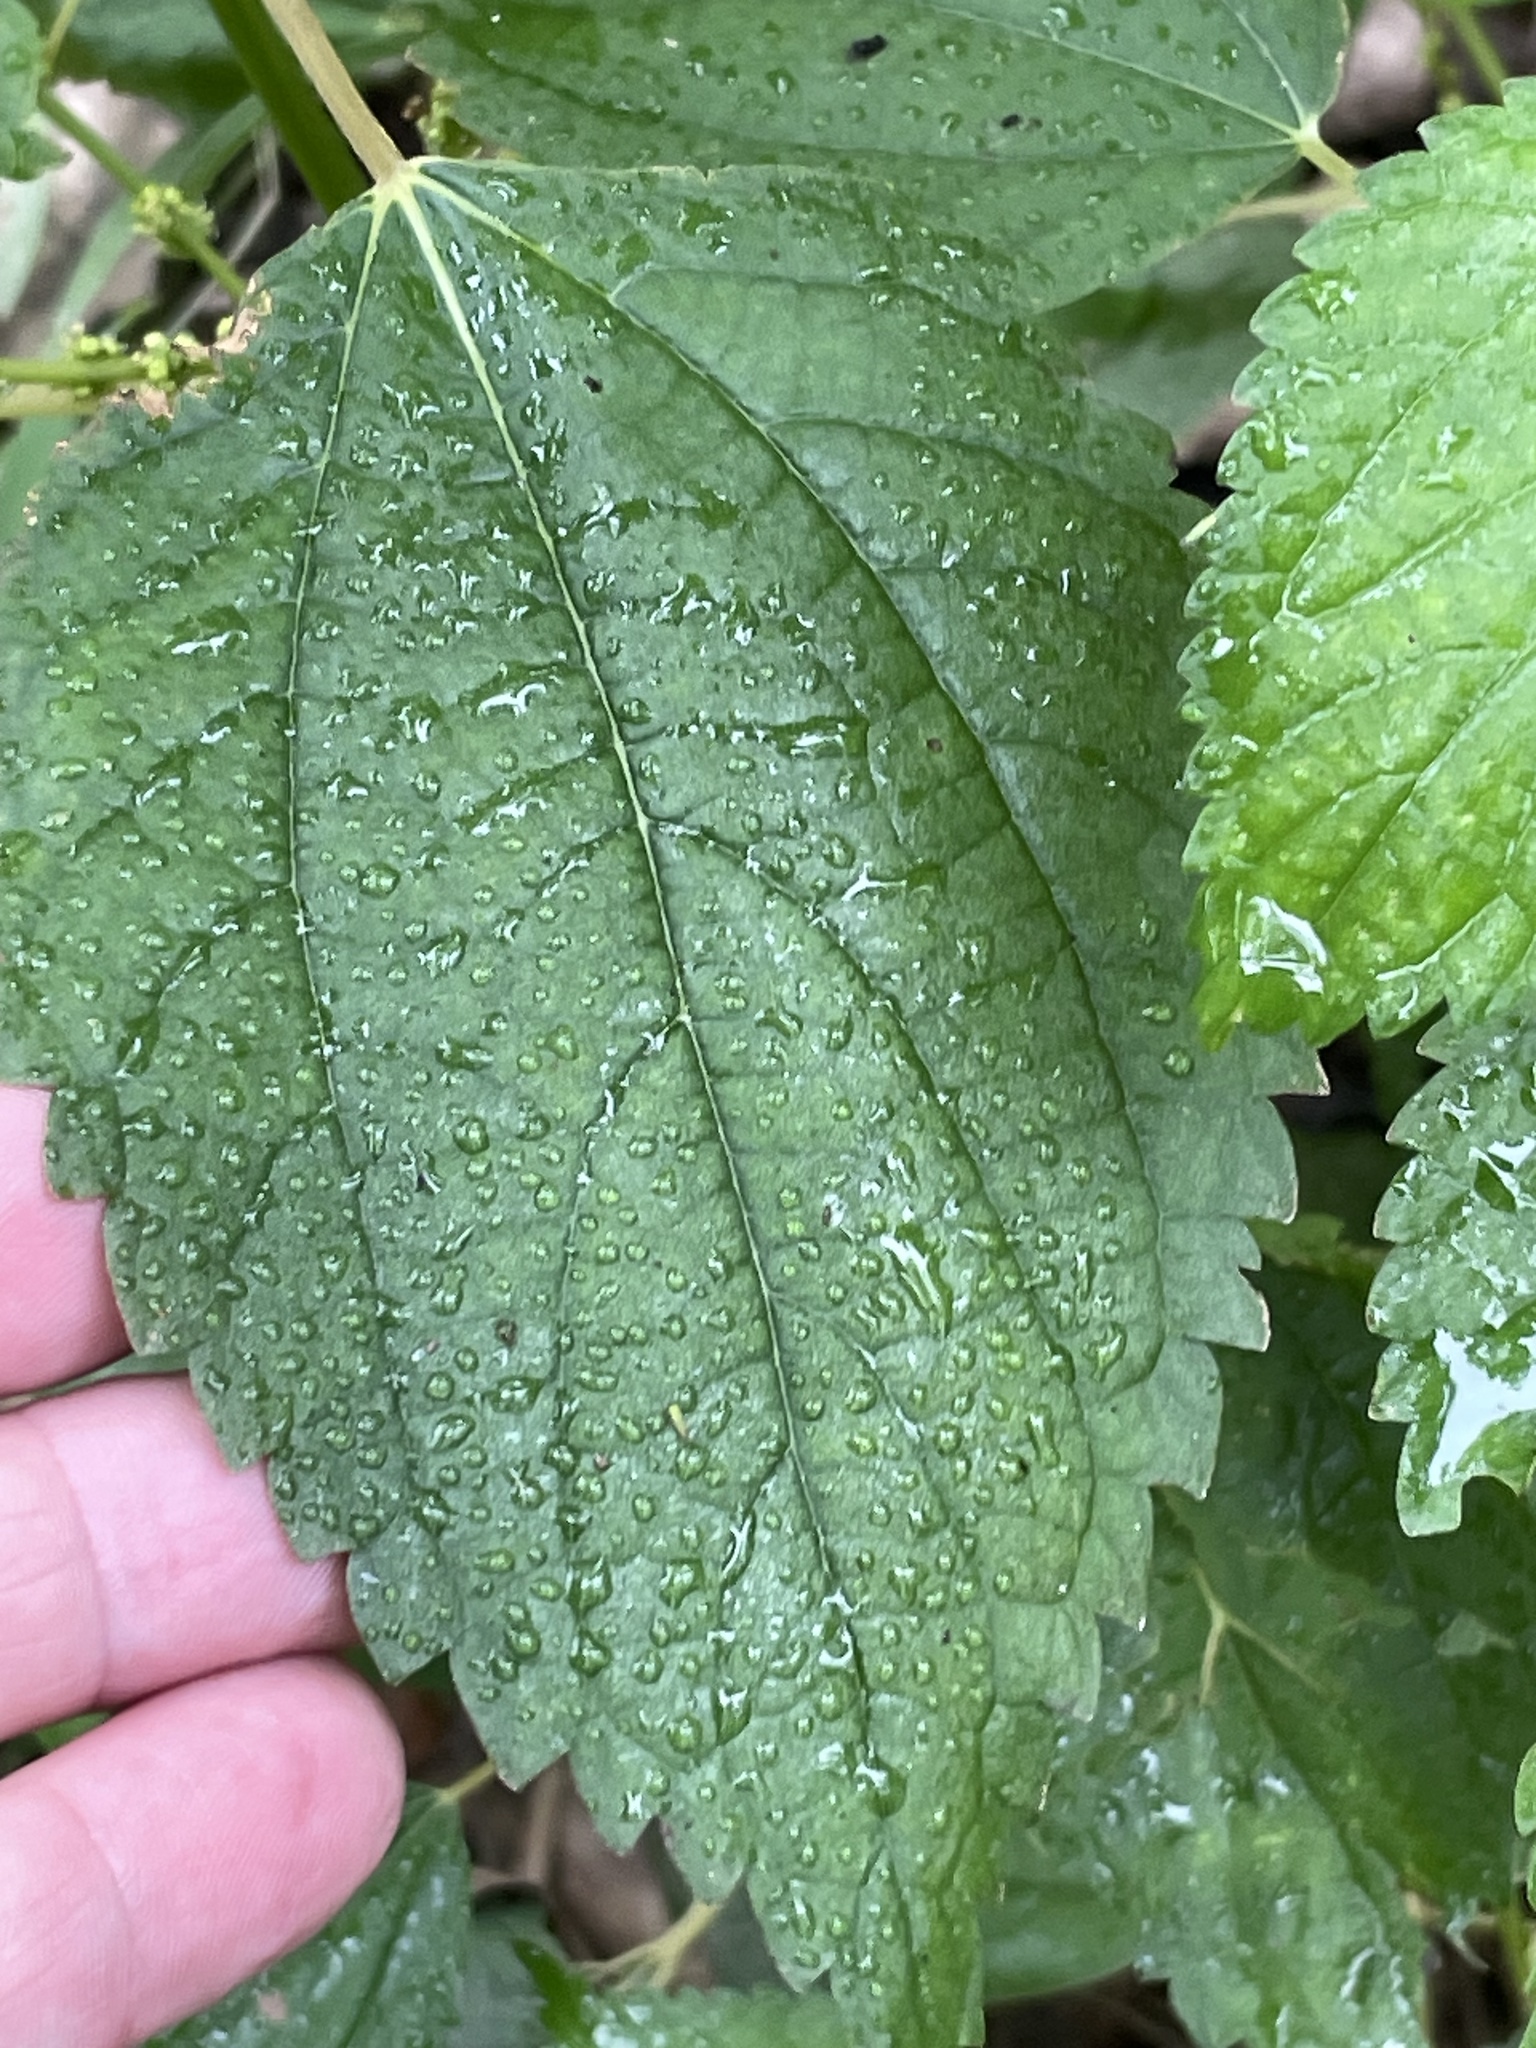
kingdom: Plantae
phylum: Tracheophyta
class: Magnoliopsida
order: Rosales
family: Urticaceae
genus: Boehmeria
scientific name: Boehmeria cylindrica
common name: Bog-hemp
